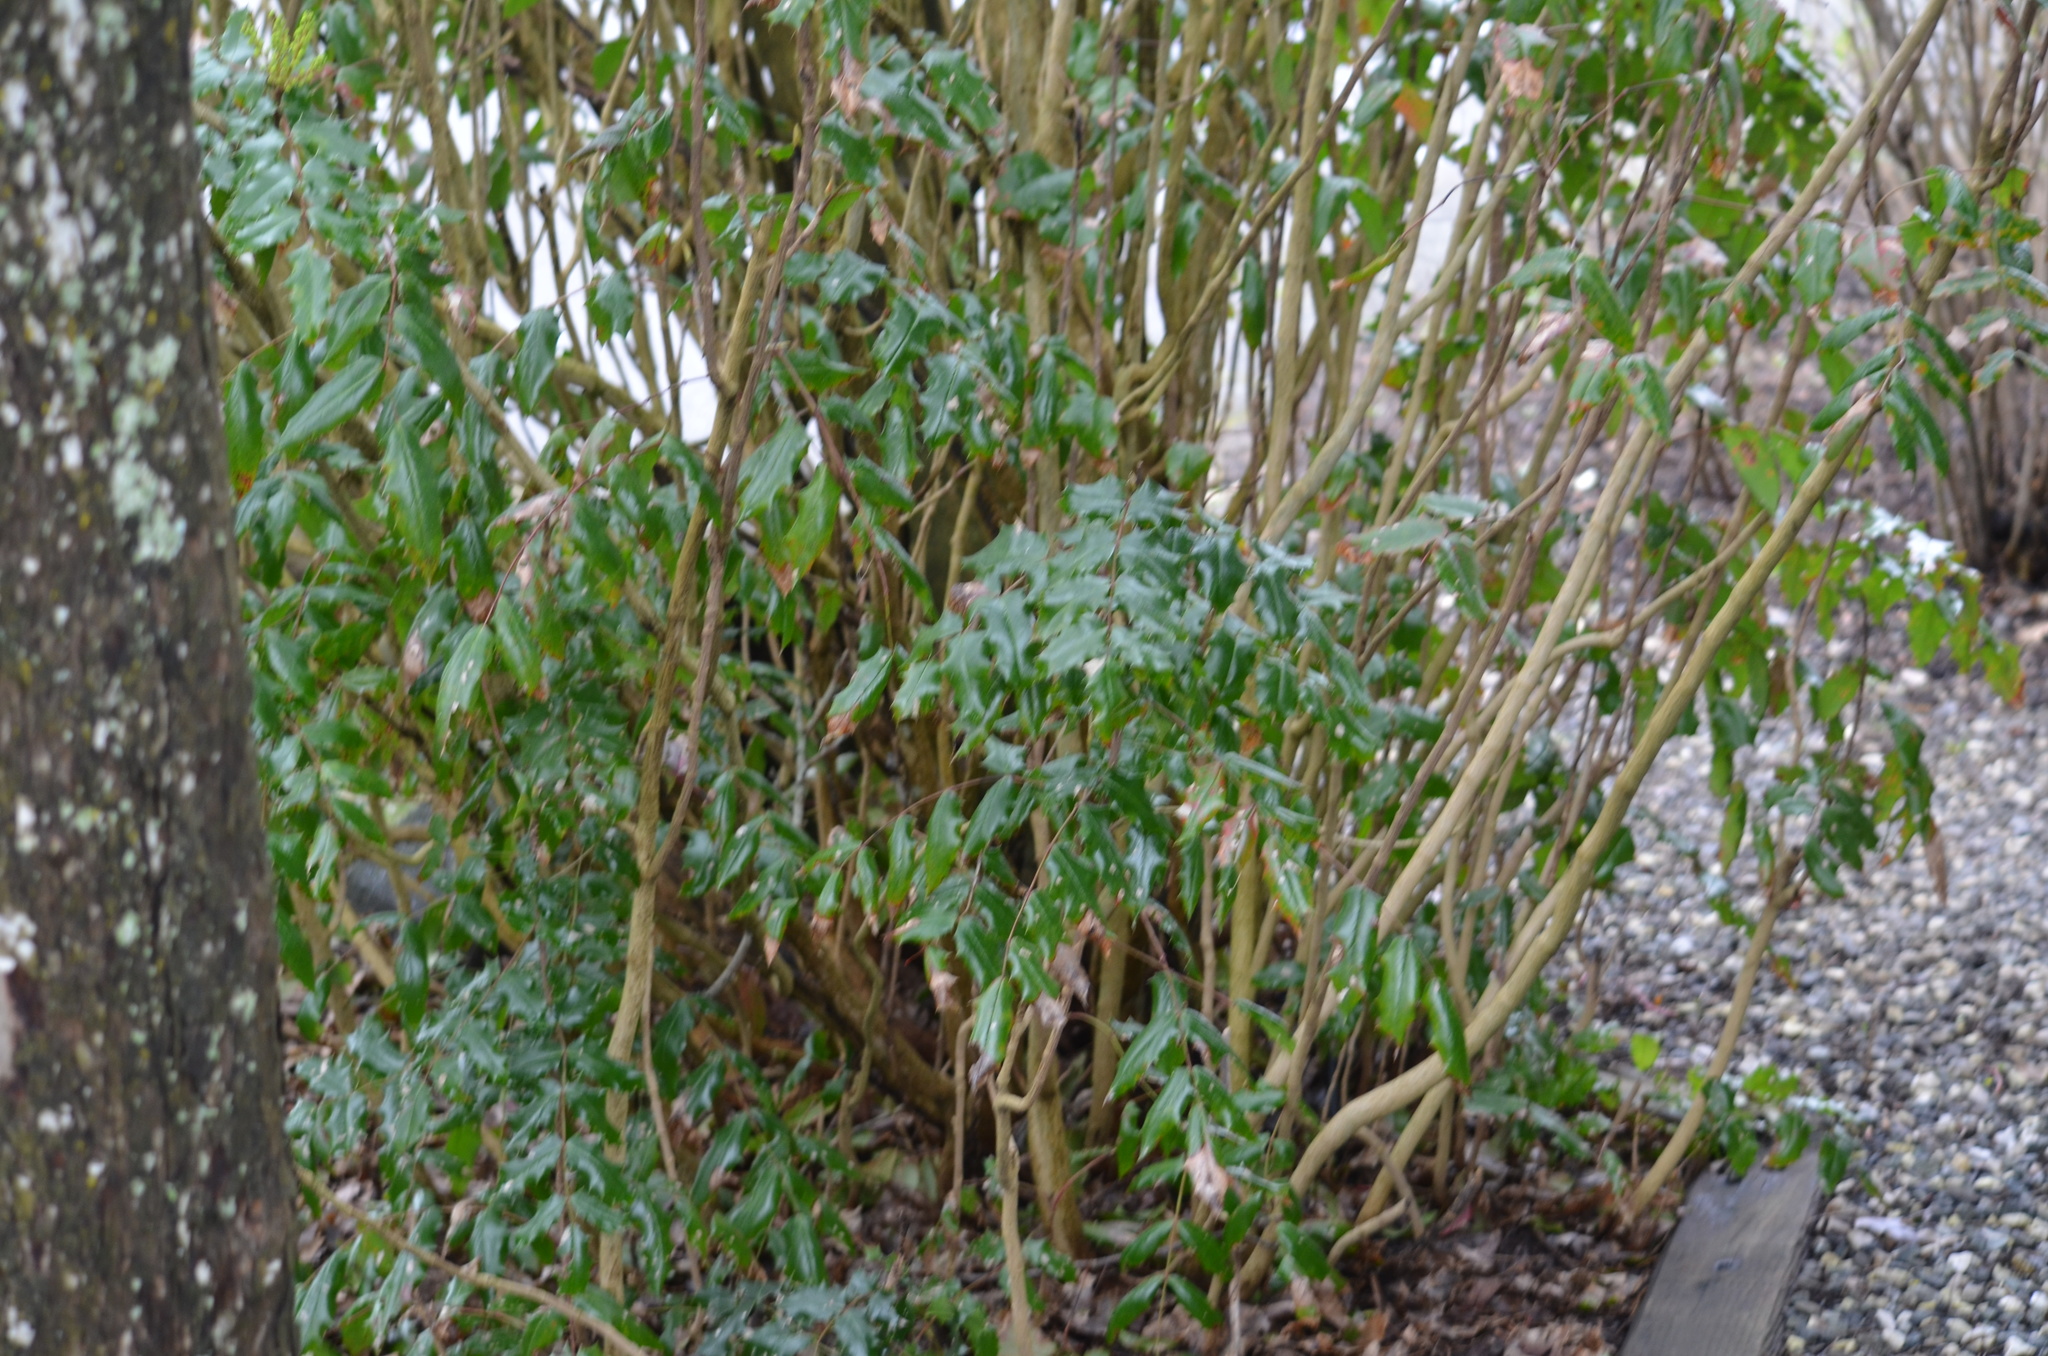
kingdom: Plantae
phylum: Tracheophyta
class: Magnoliopsida
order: Ranunculales
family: Berberidaceae
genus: Mahonia
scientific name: Mahonia aquifolium
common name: Oregon-grape
